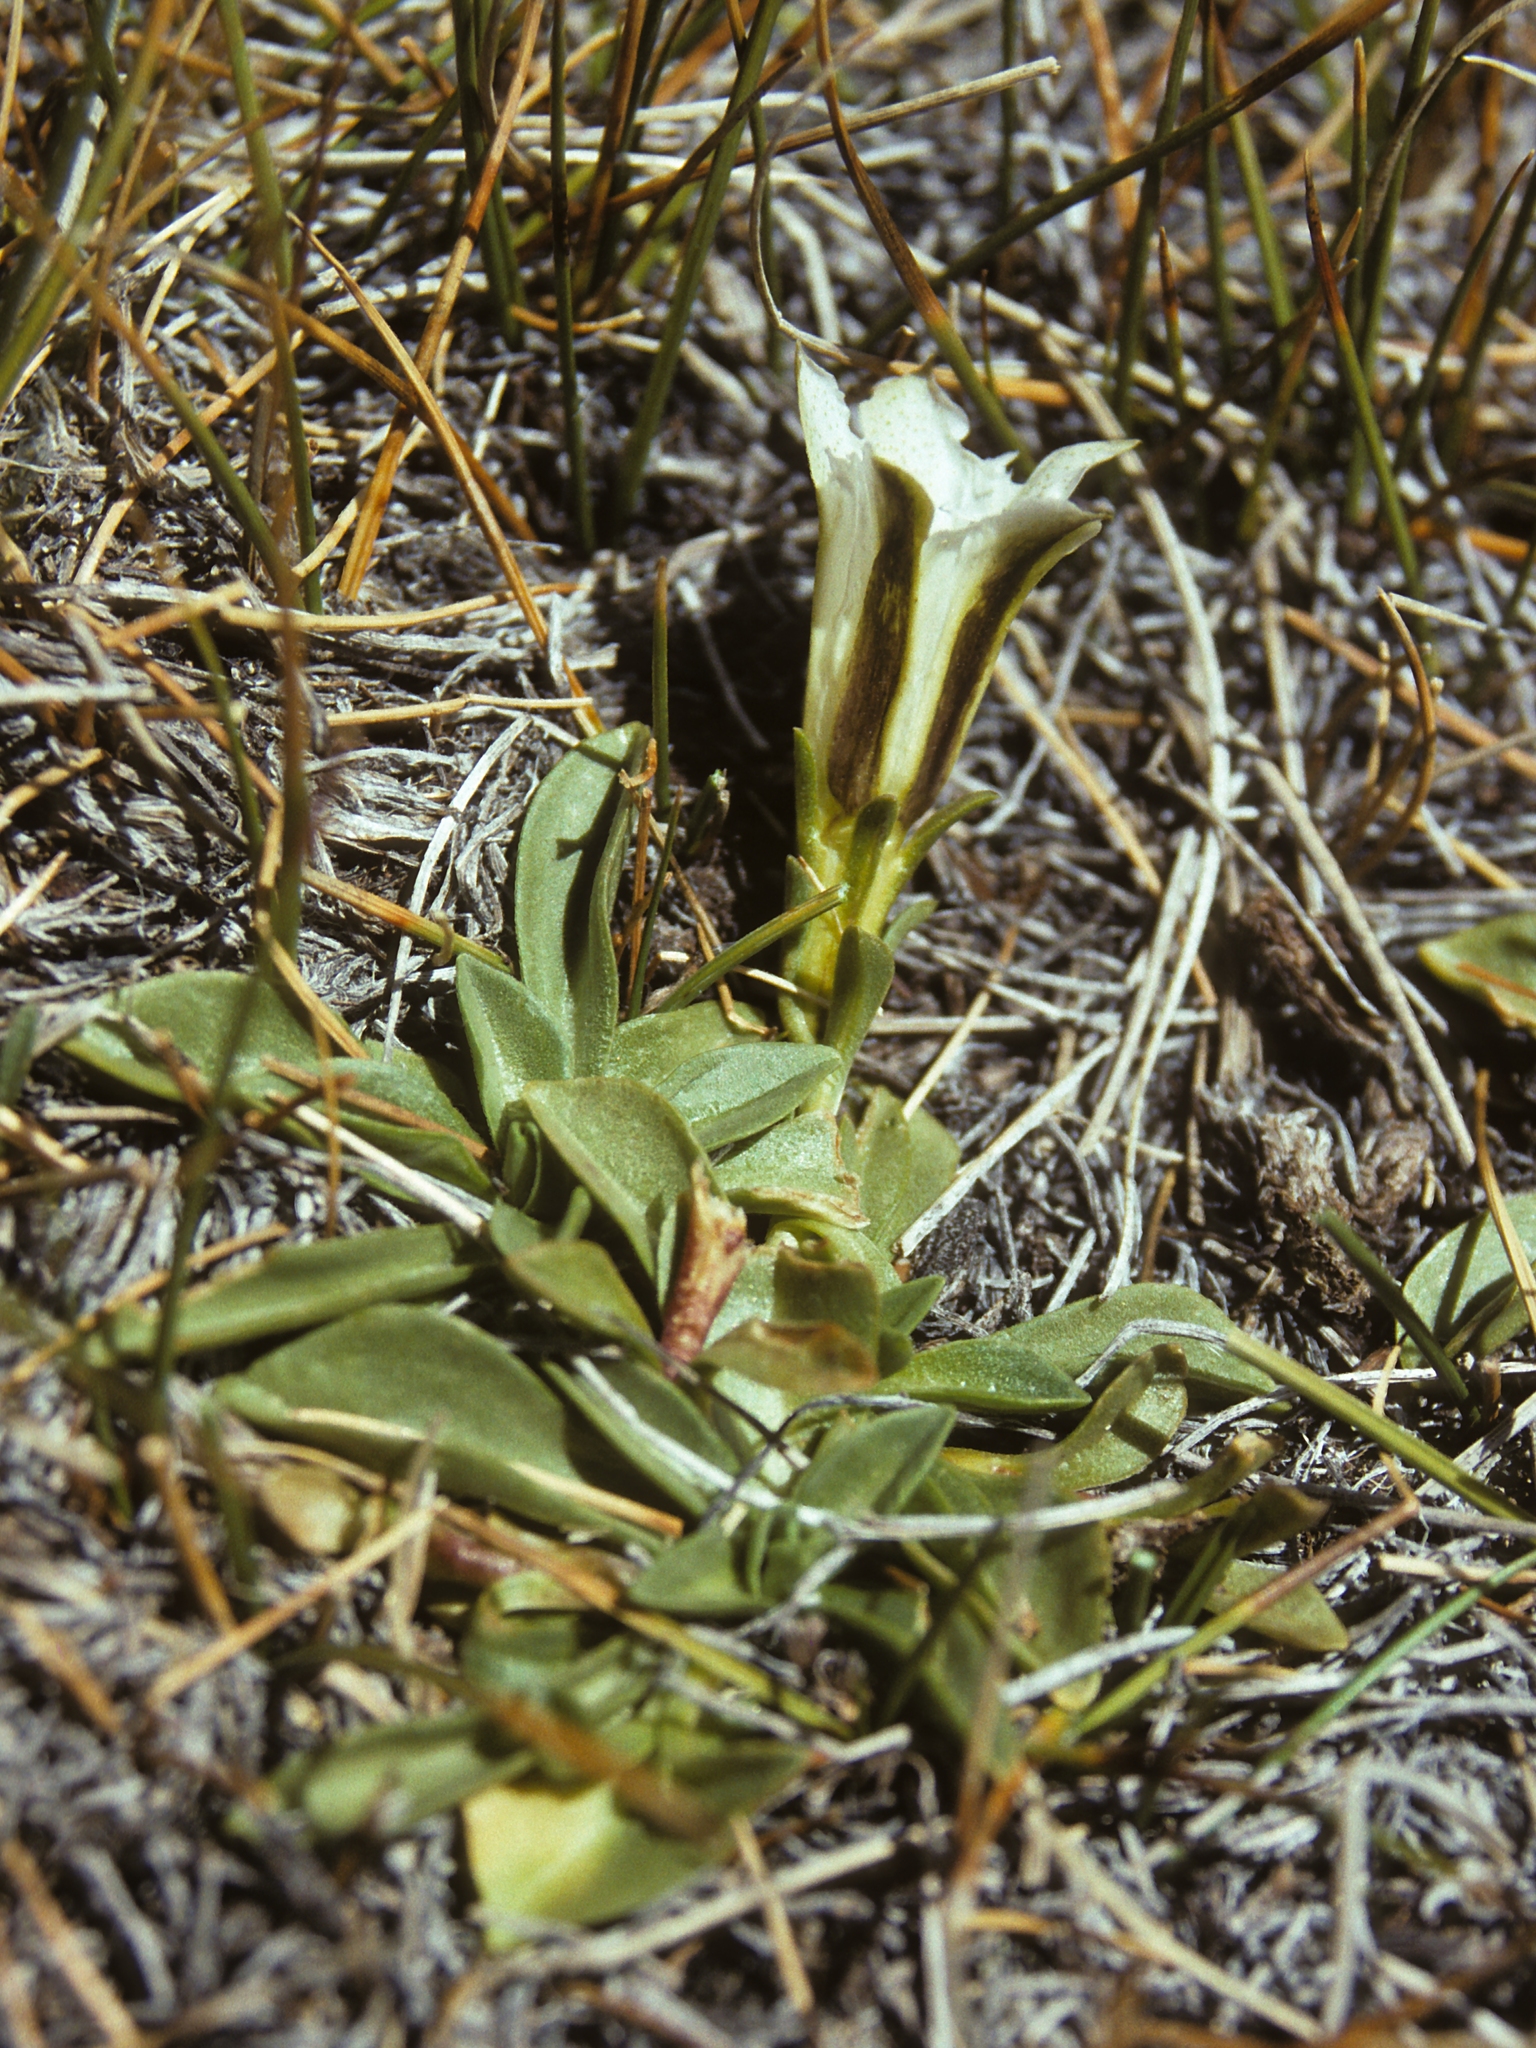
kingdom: Plantae
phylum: Tracheophyta
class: Magnoliopsida
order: Gentianales
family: Gentianaceae
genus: Gentiana
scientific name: Gentiana newberryi
